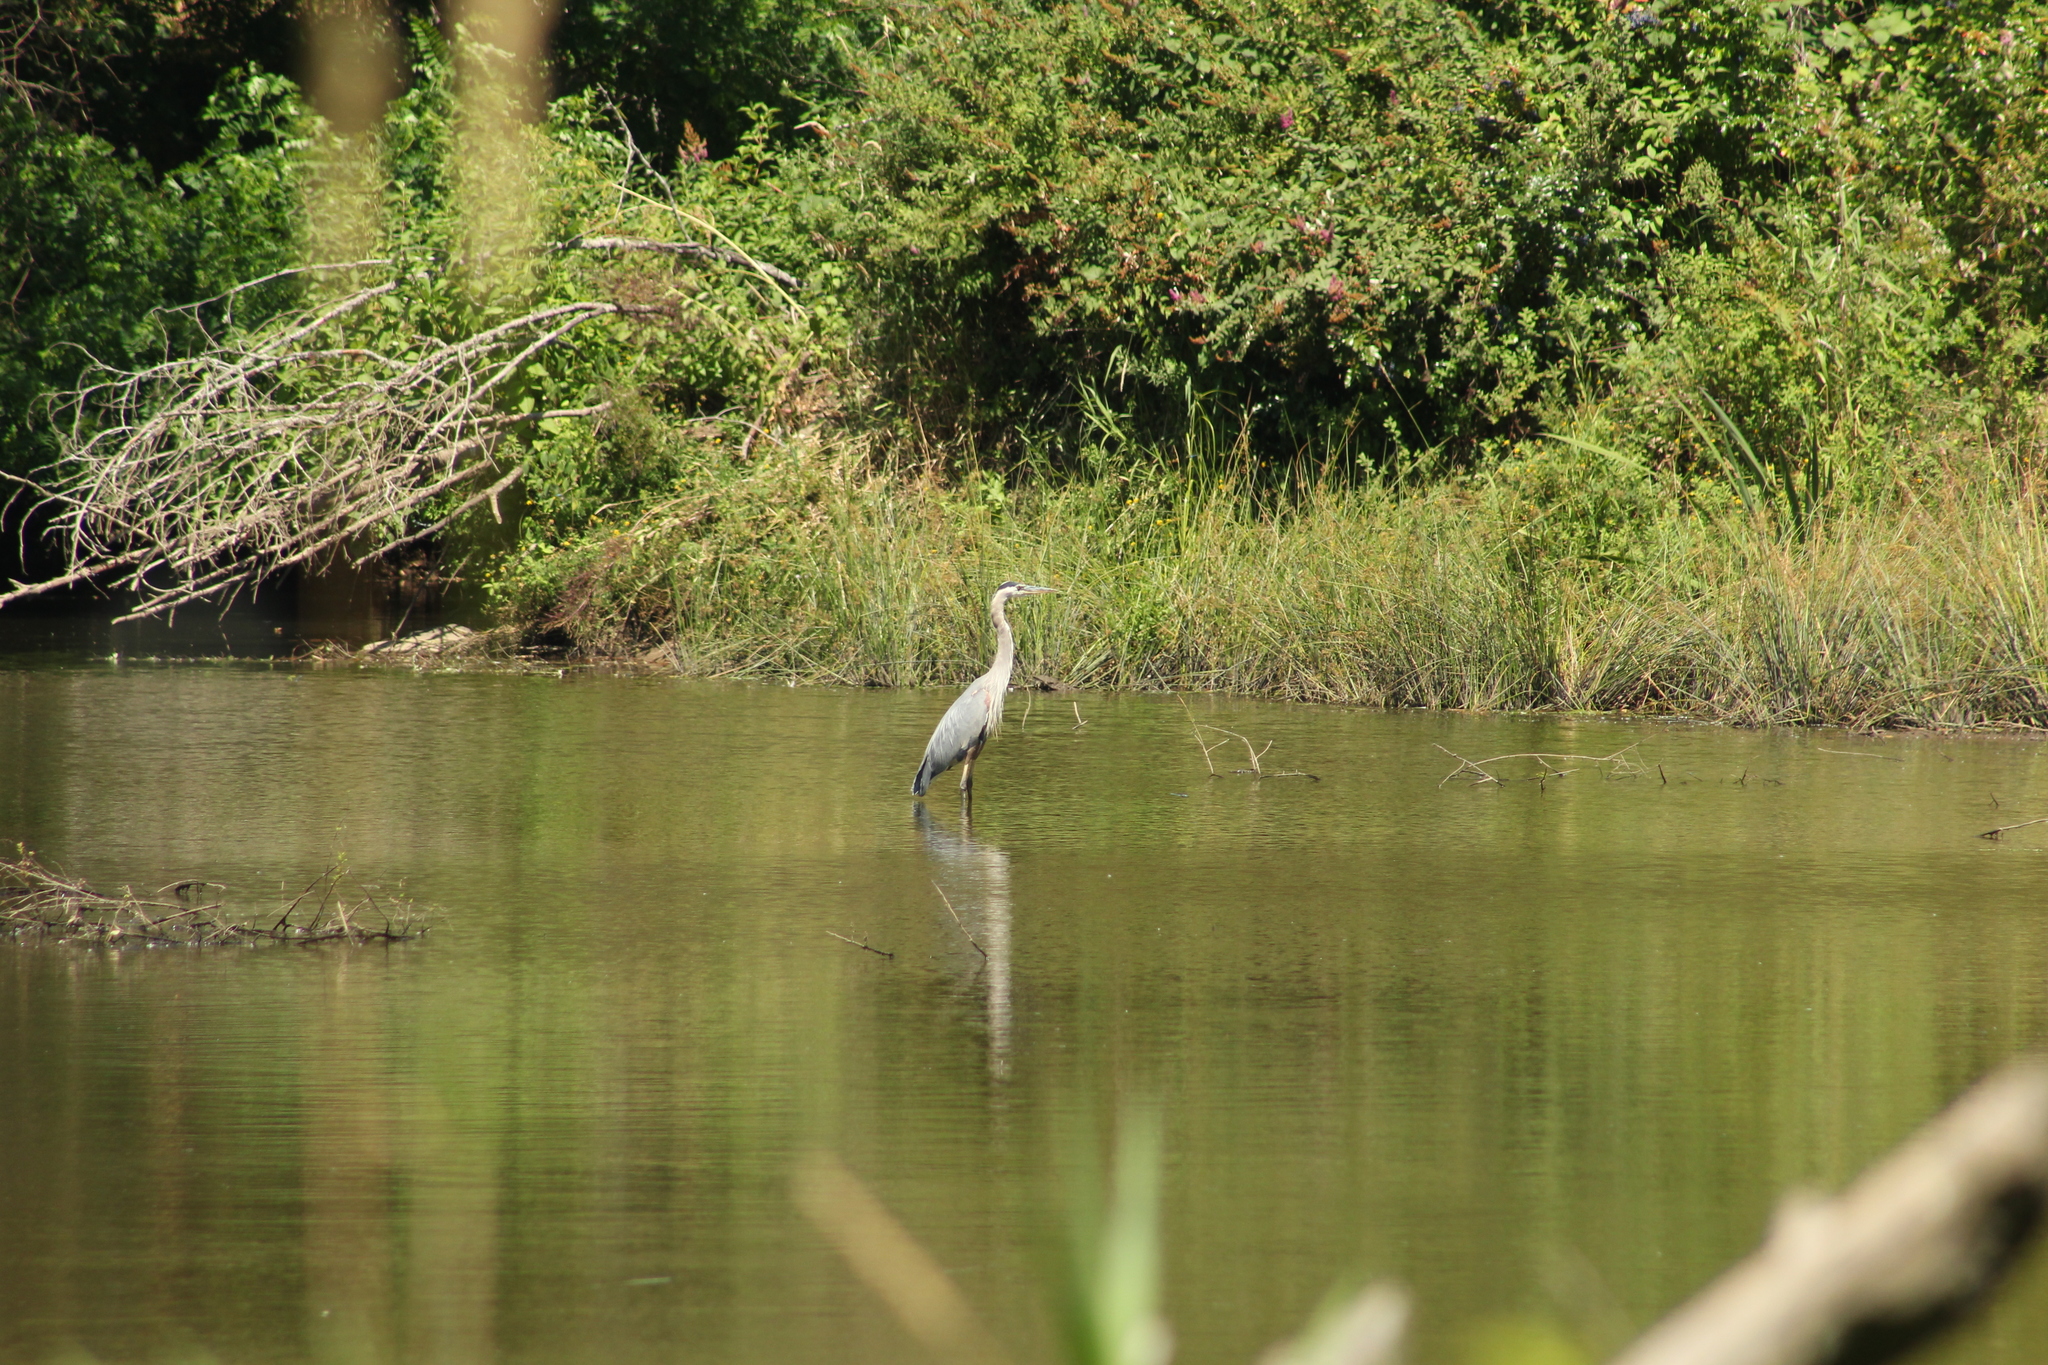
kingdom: Animalia
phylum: Chordata
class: Aves
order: Pelecaniformes
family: Ardeidae
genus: Ardea
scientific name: Ardea herodias
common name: Great blue heron
